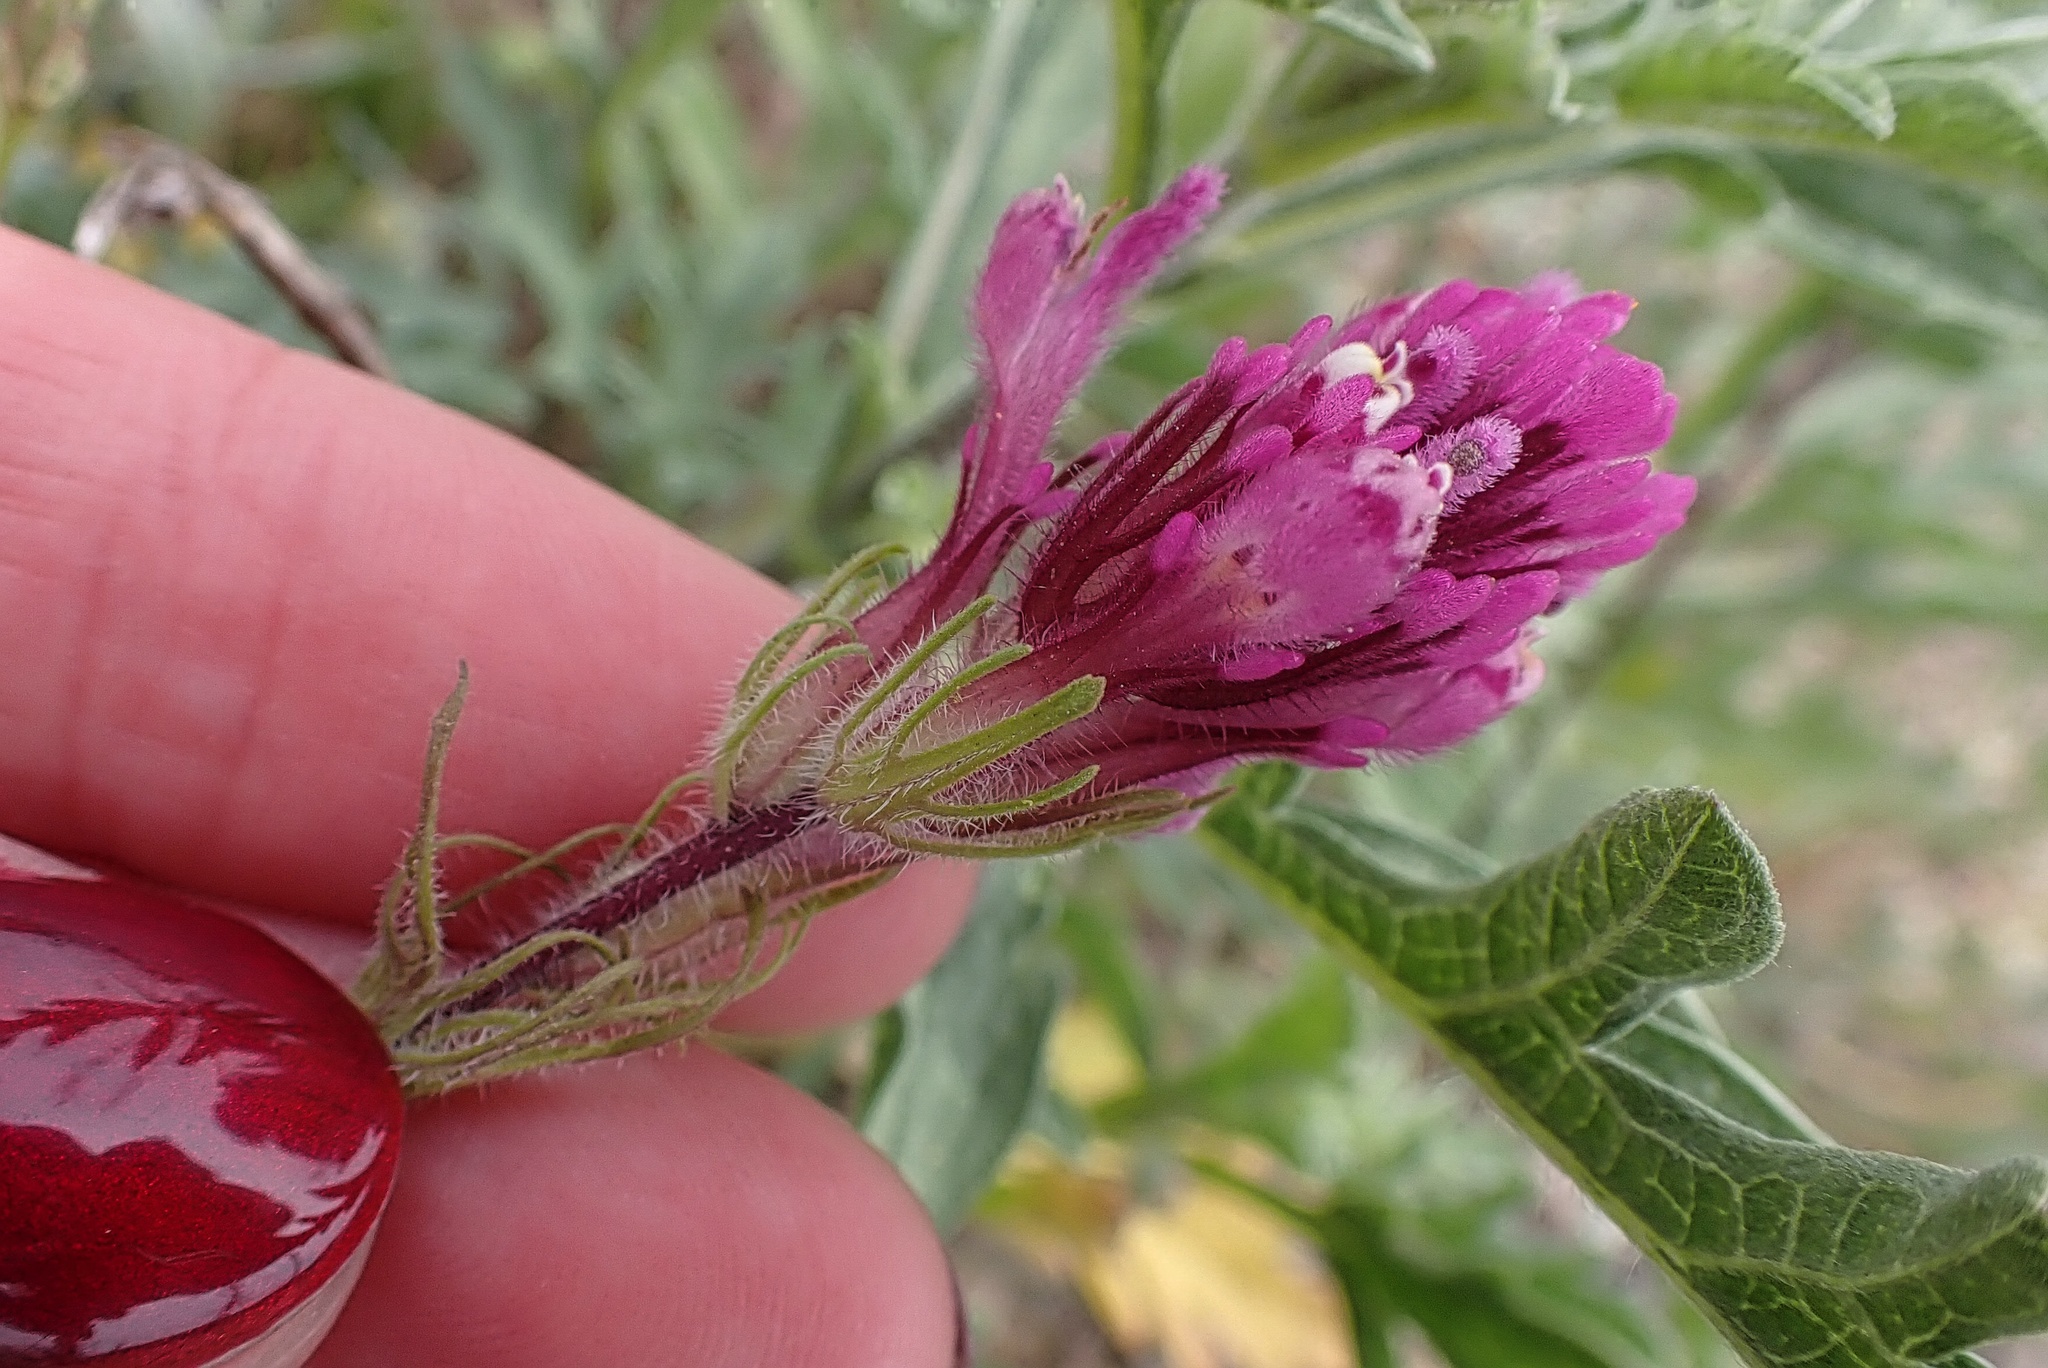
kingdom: Plantae
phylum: Tracheophyta
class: Magnoliopsida
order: Lamiales
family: Orobanchaceae
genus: Castilleja
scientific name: Castilleja exserta
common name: Purple owl-clover
